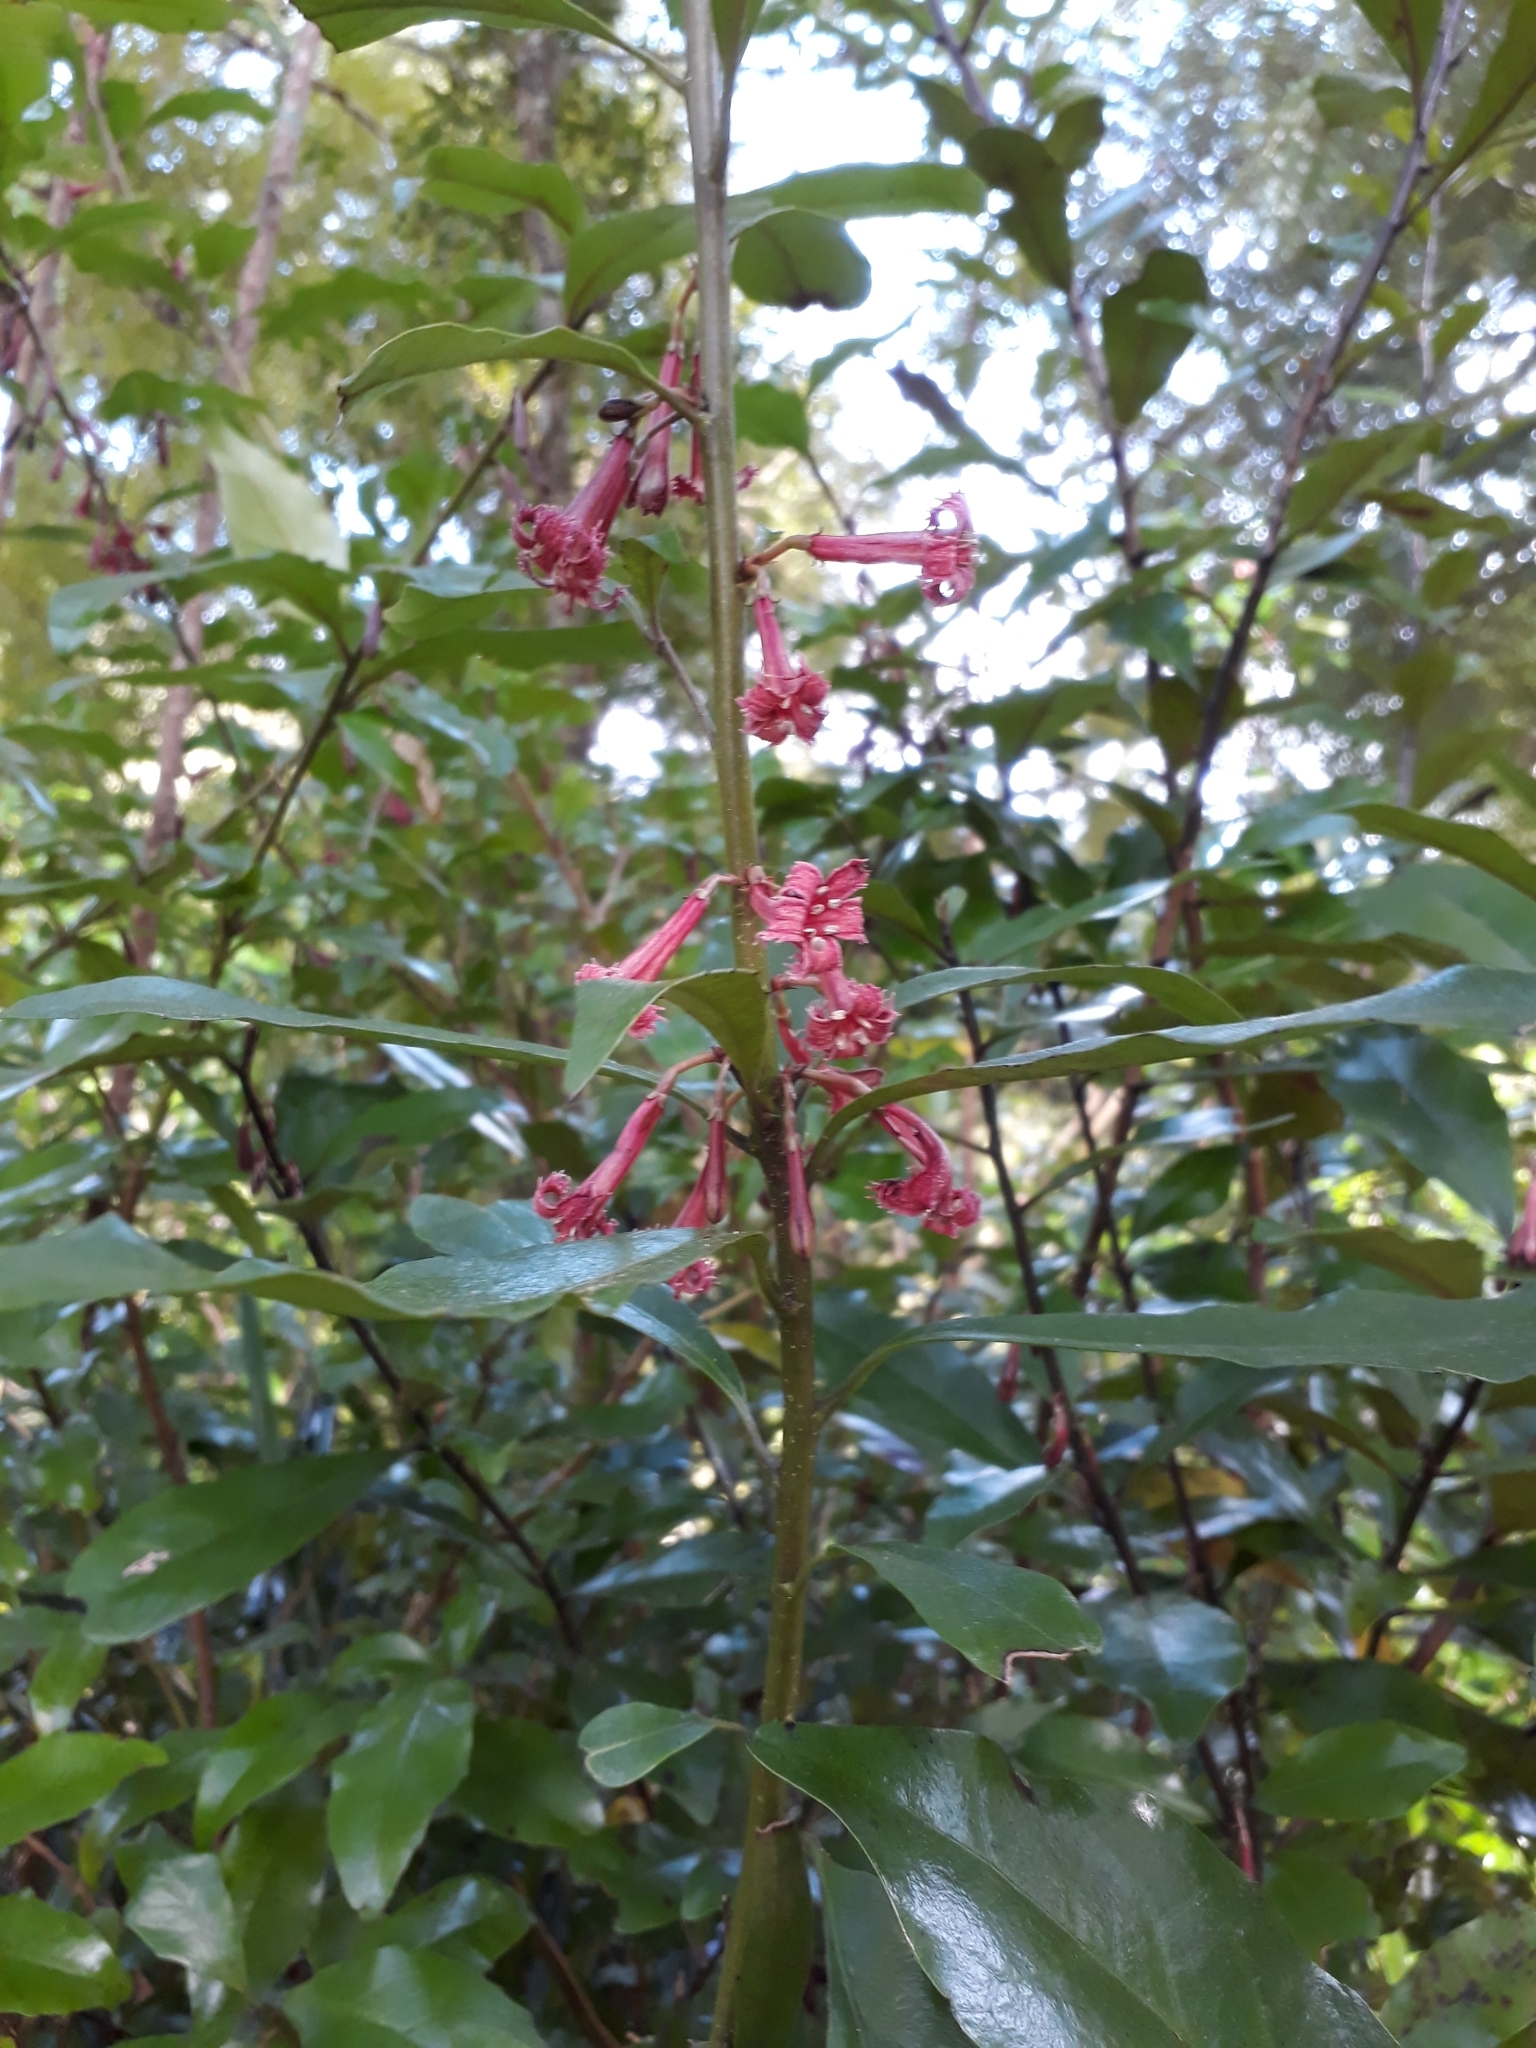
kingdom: Plantae
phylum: Tracheophyta
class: Magnoliopsida
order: Asterales
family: Alseuosmiaceae
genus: Alseuosmia
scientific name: Alseuosmia macrophylla
